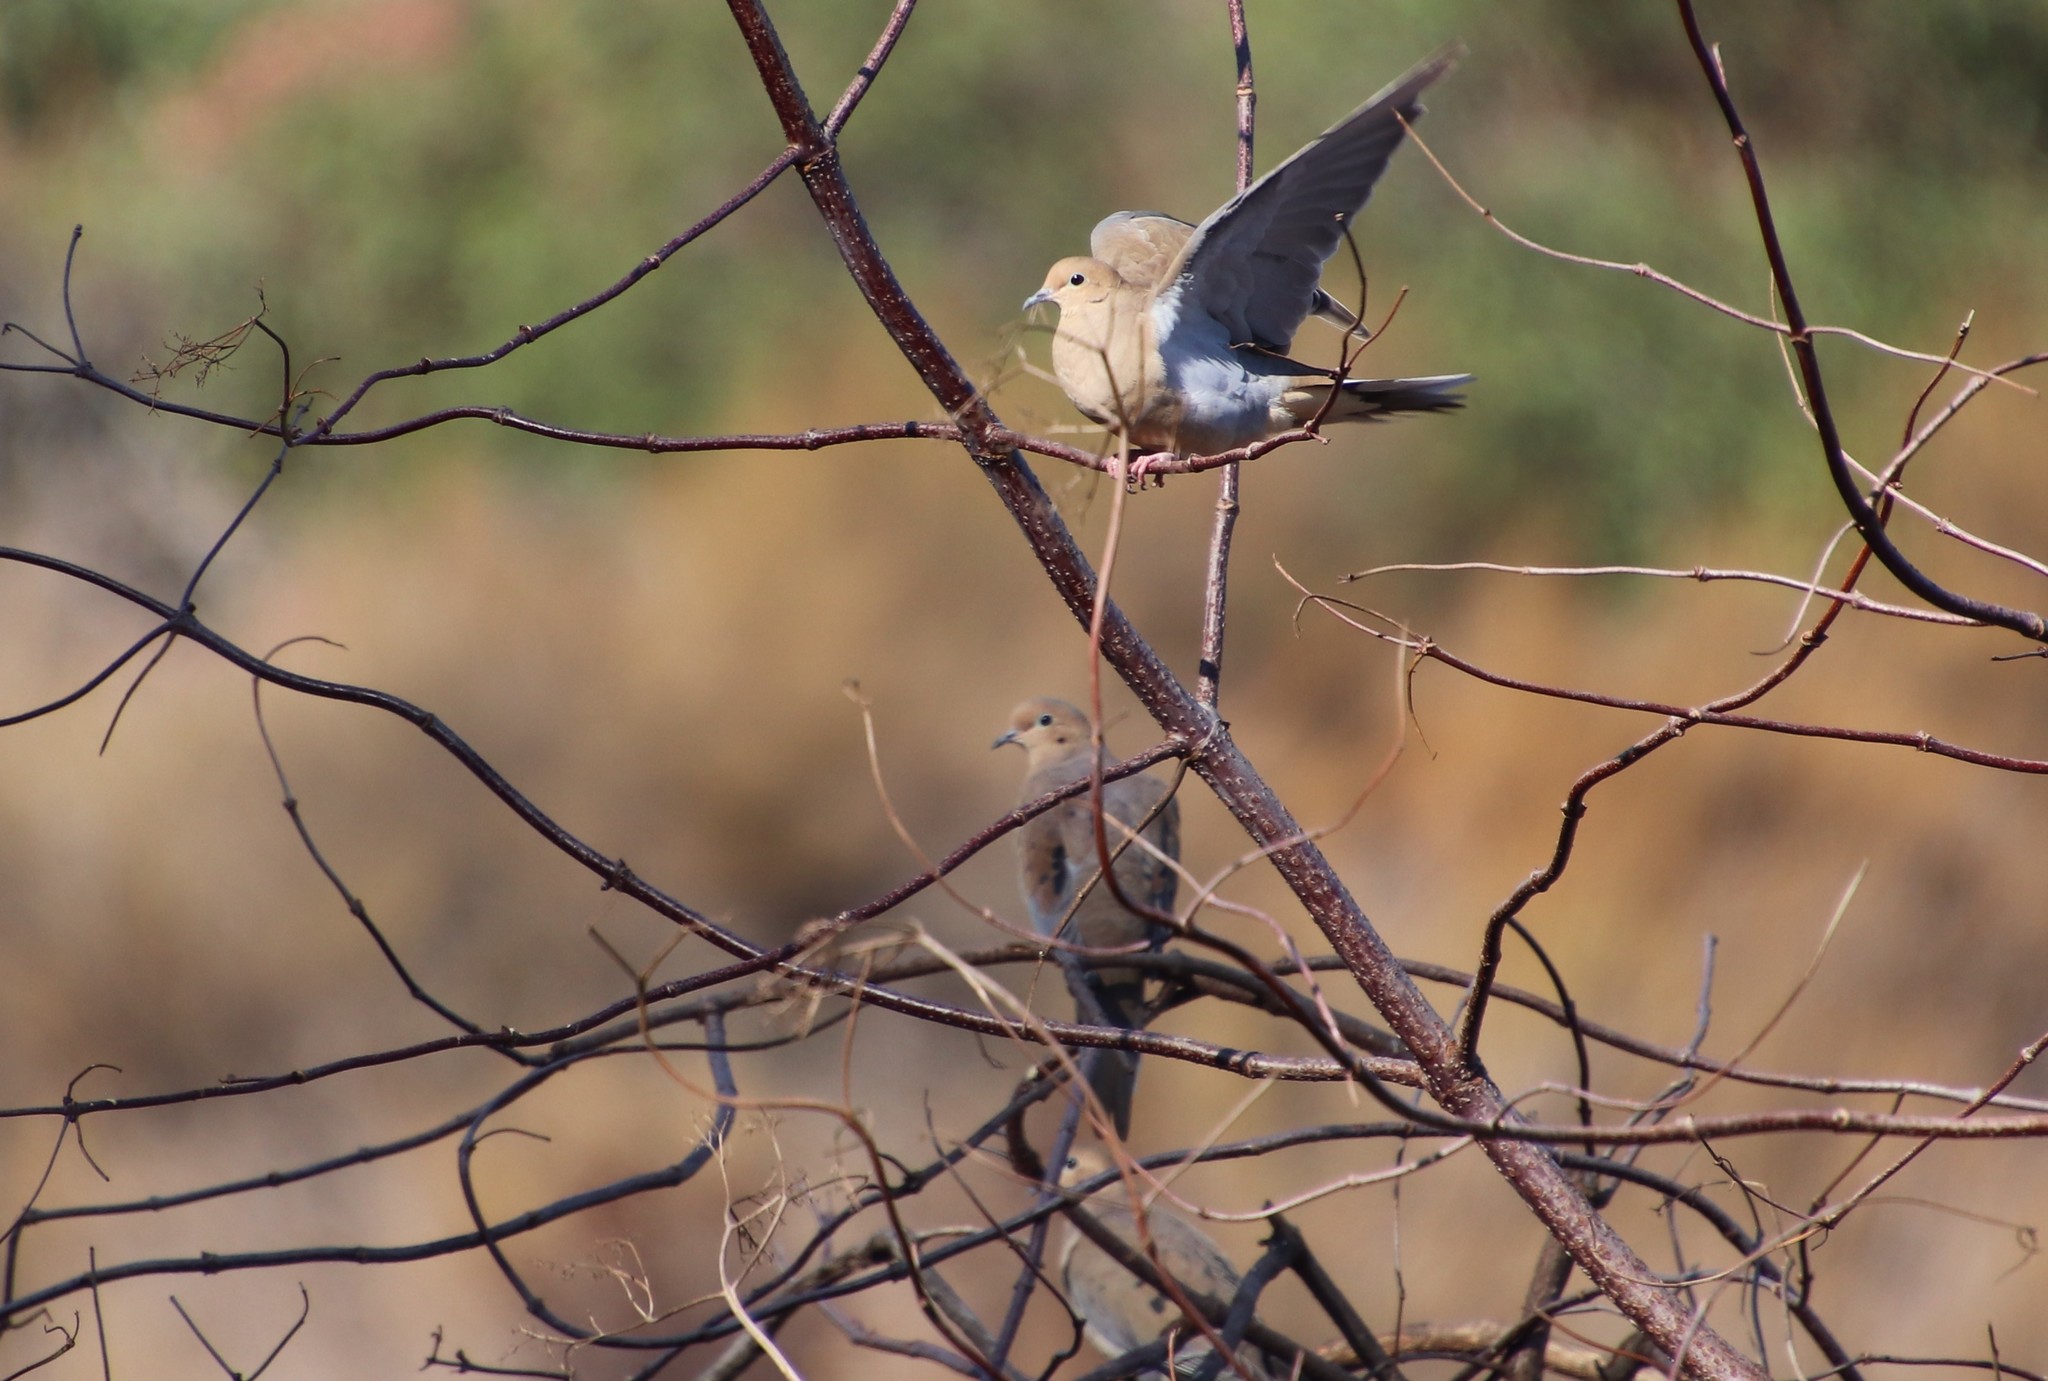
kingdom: Animalia
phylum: Chordata
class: Aves
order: Columbiformes
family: Columbidae
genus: Zenaida
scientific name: Zenaida macroura
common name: Mourning dove
